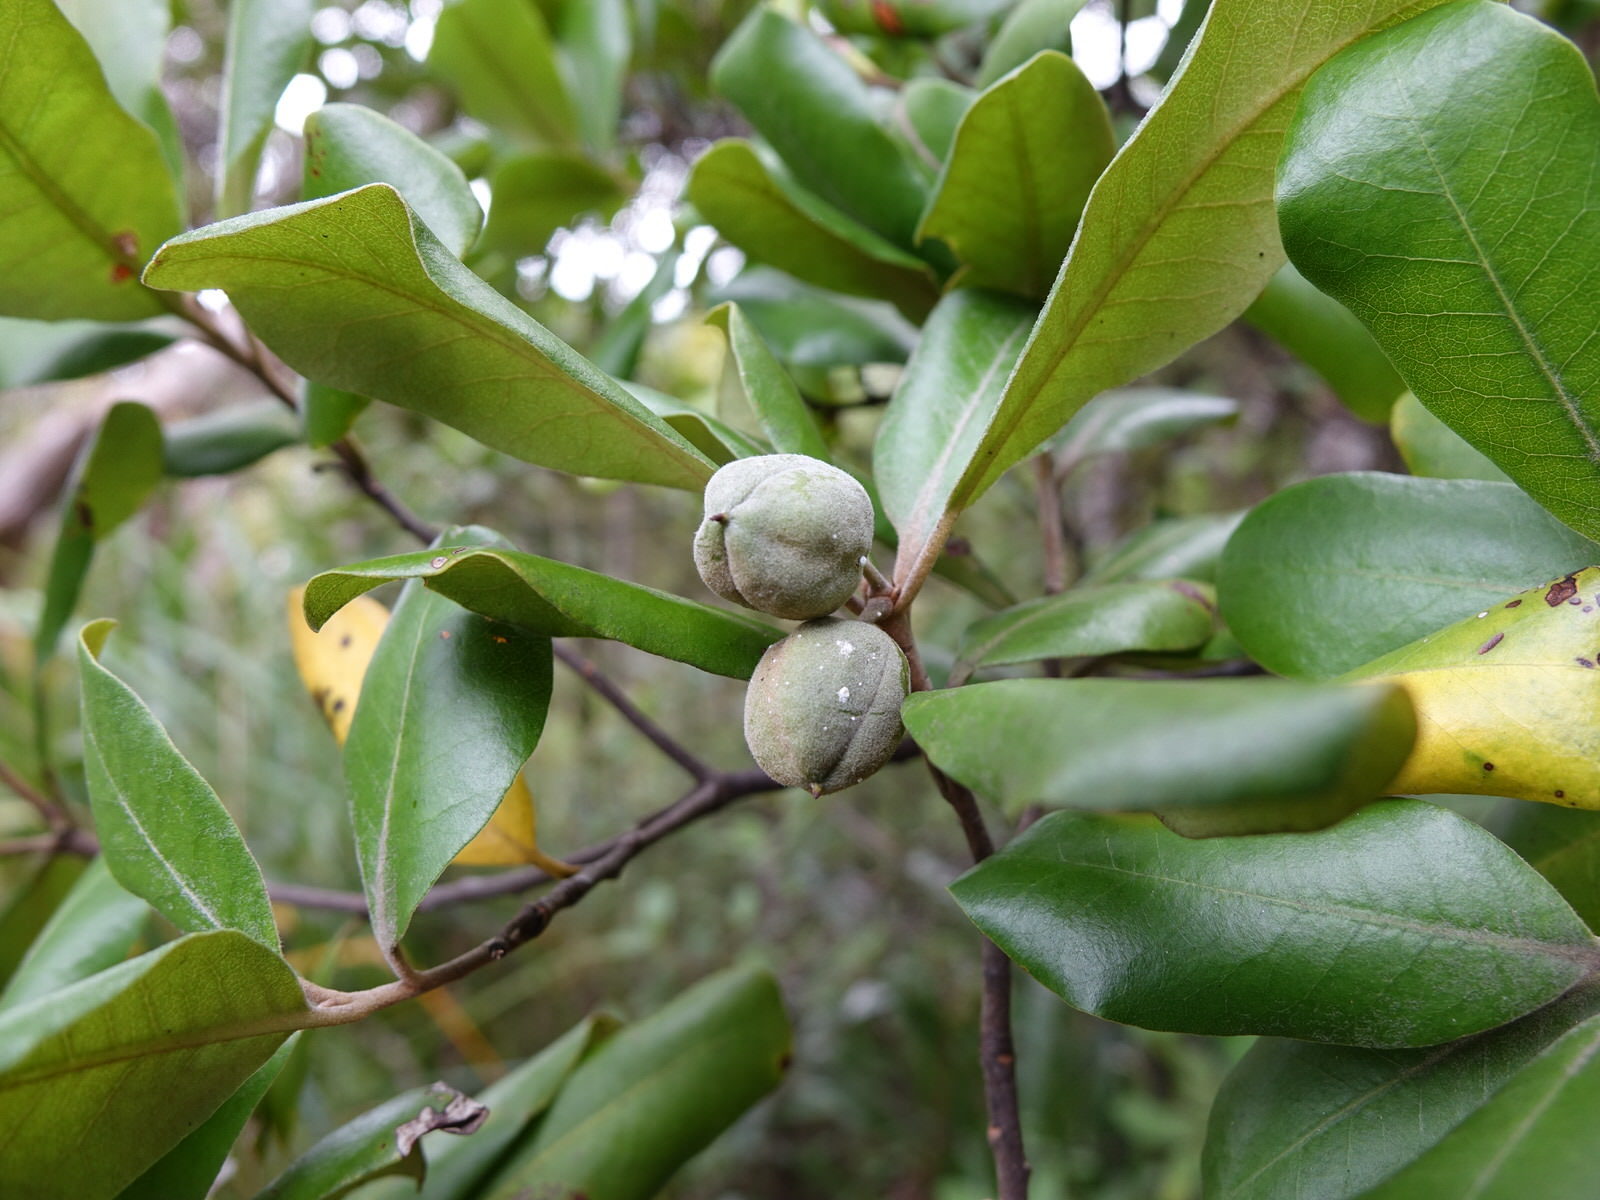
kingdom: Plantae
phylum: Tracheophyta
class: Magnoliopsida
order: Apiales
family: Pittosporaceae
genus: Pittosporum
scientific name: Pittosporum ellipticum
